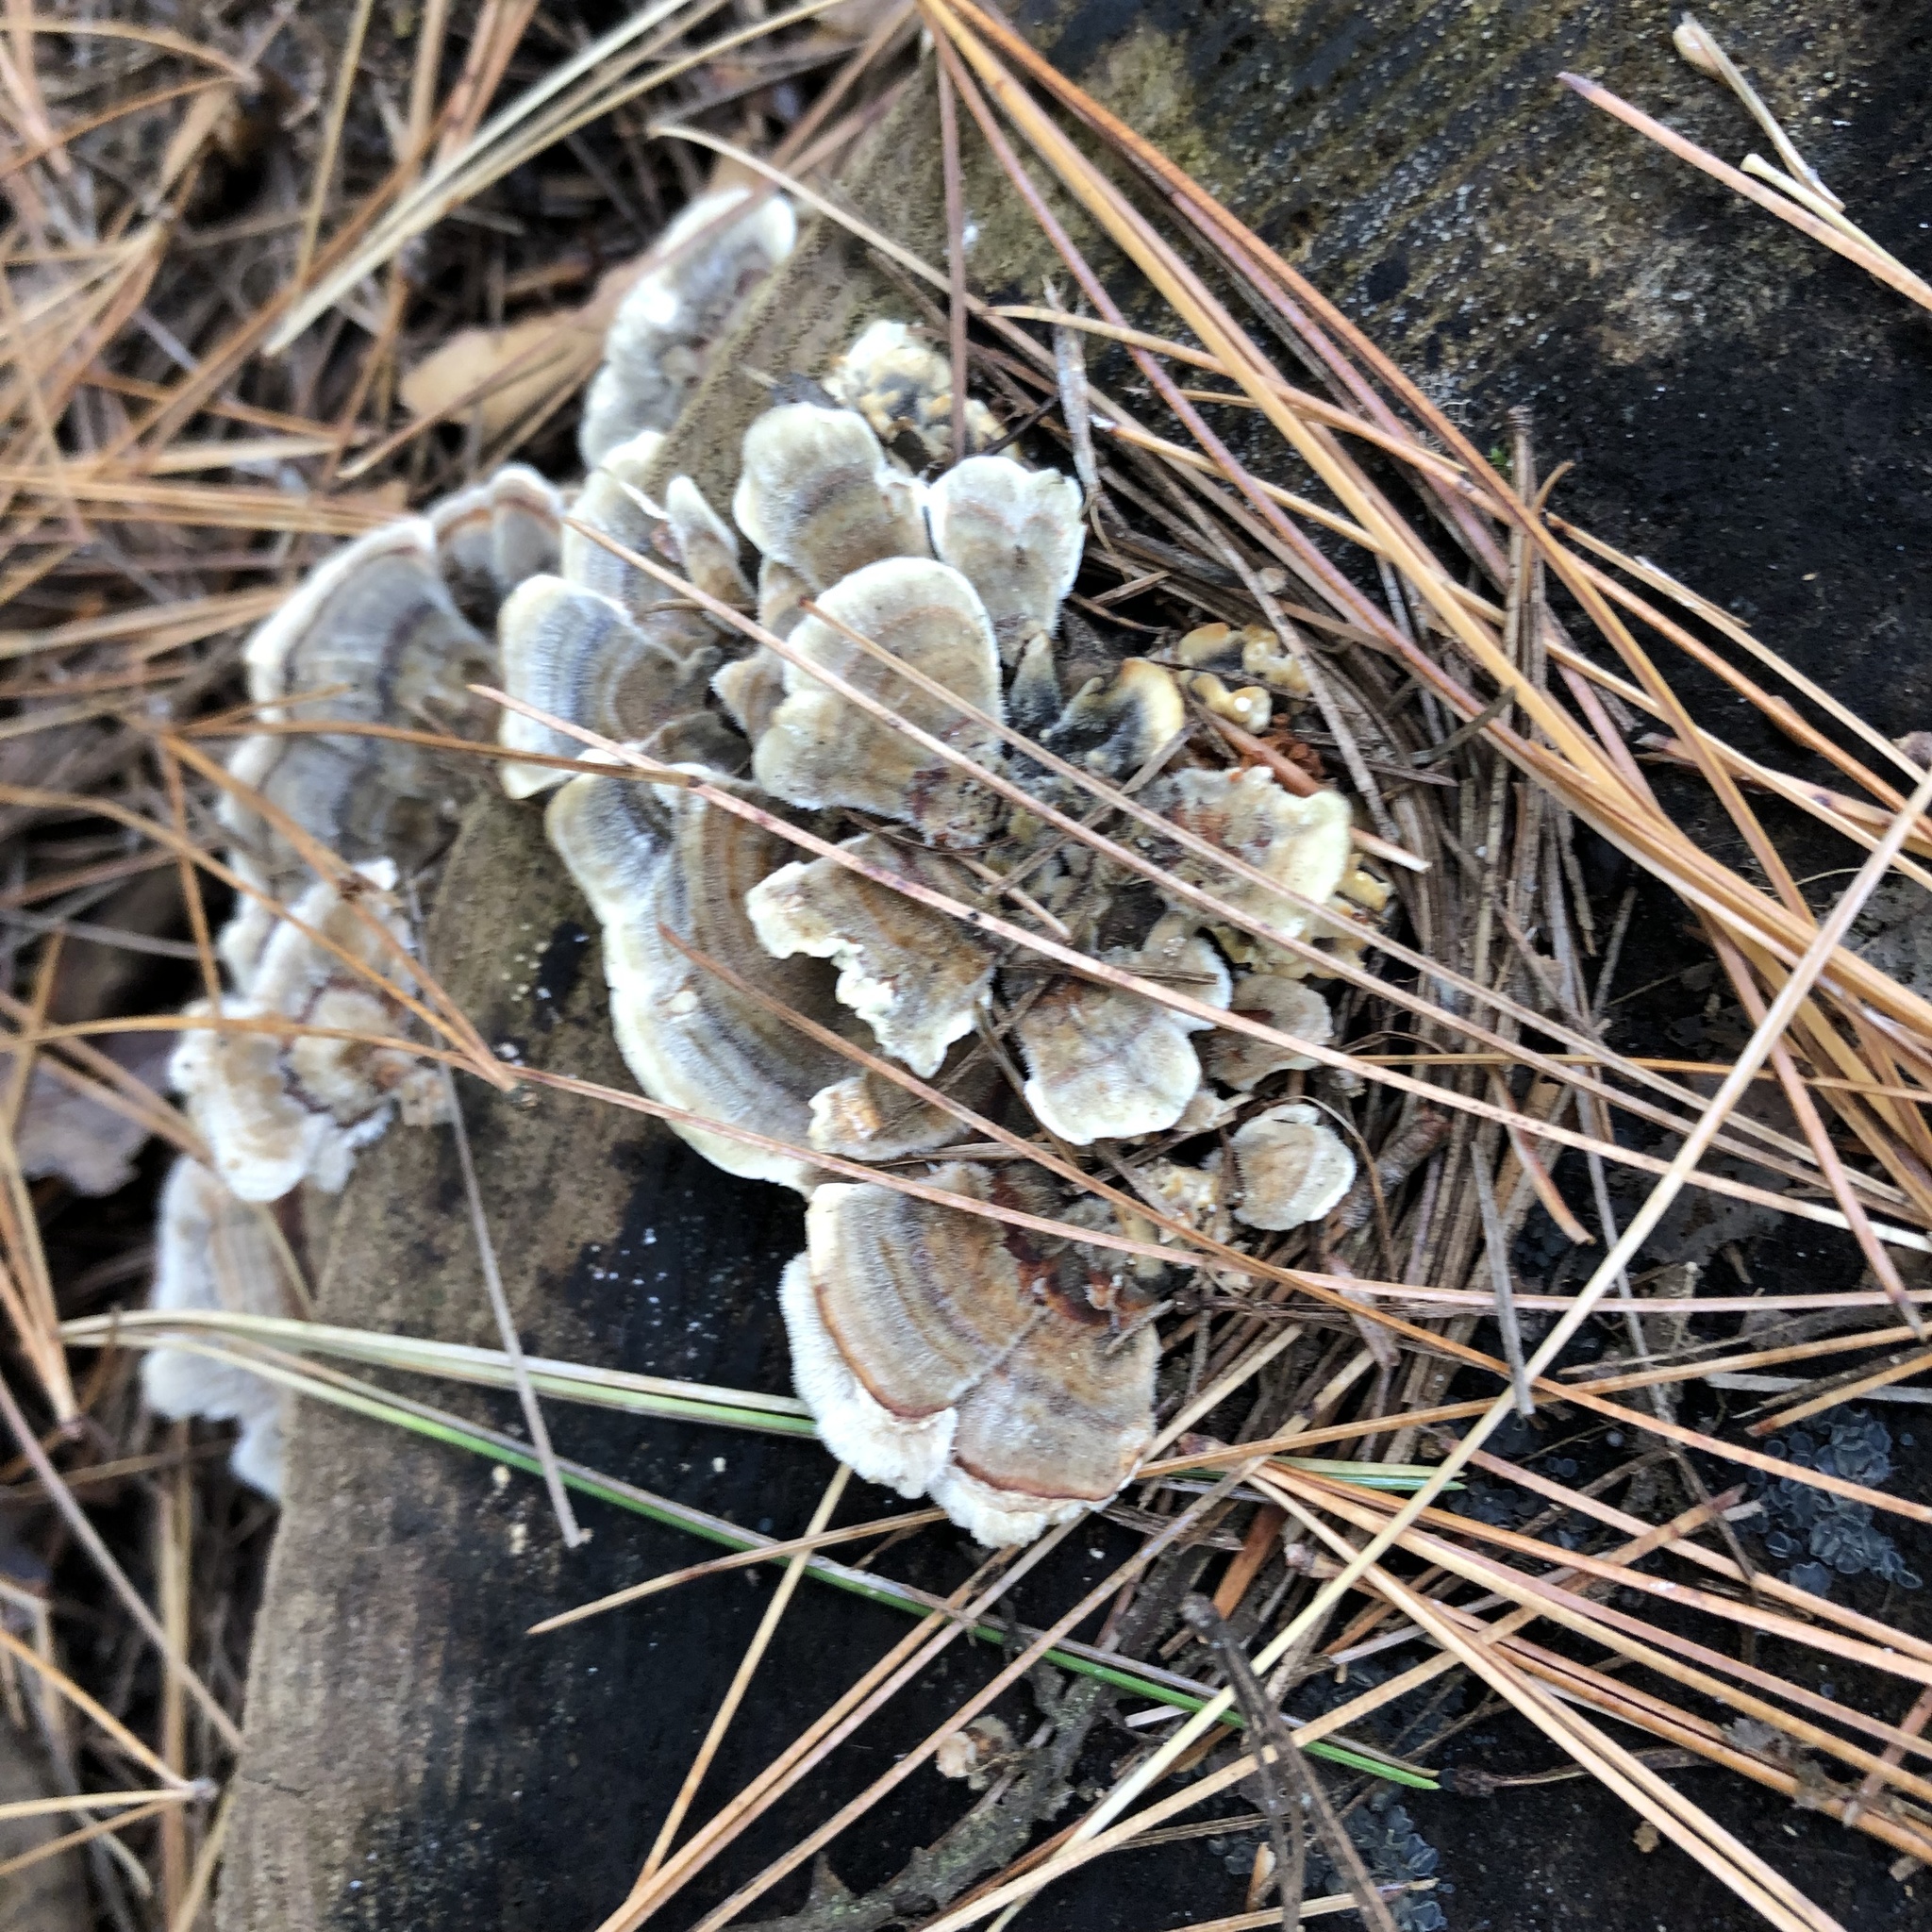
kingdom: Fungi
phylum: Basidiomycota
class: Agaricomycetes
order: Polyporales
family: Polyporaceae
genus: Trametes
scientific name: Trametes versicolor
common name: Turkeytail
